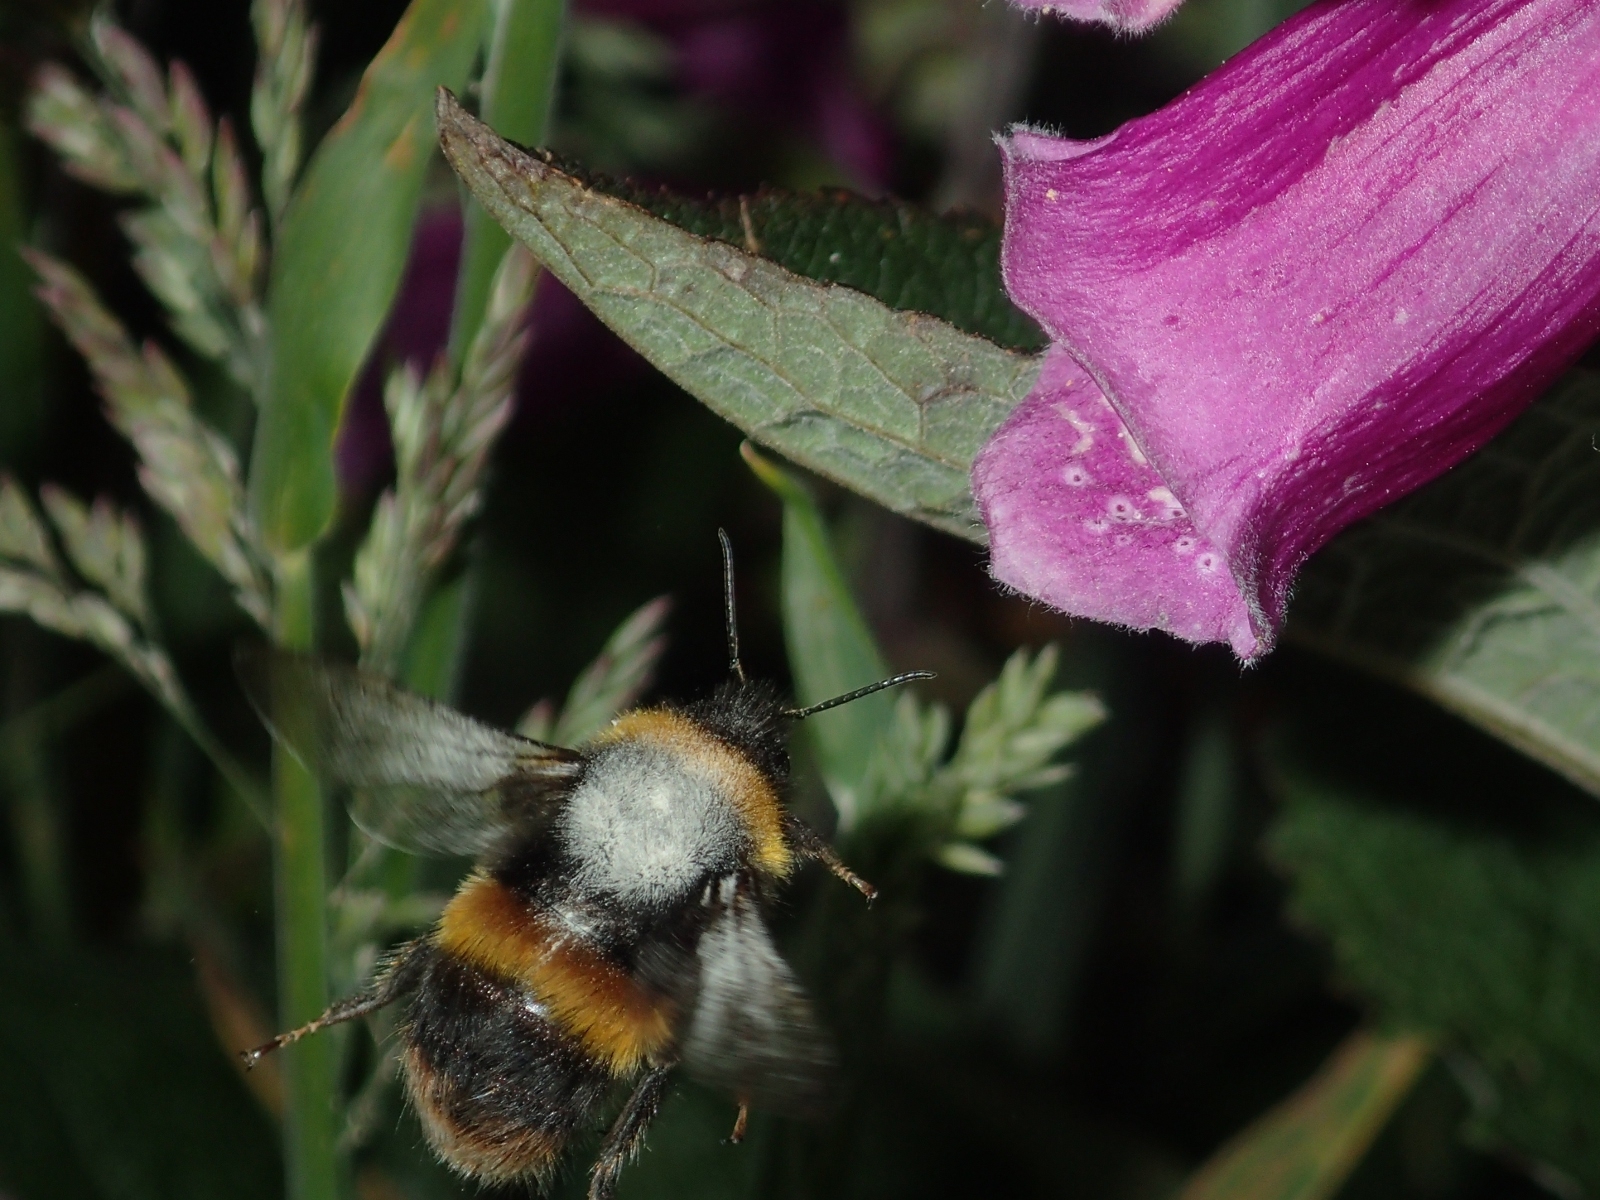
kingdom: Animalia
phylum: Arthropoda
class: Insecta
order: Hymenoptera
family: Apidae
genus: Bombus
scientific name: Bombus terrestris
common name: Buff-tailed bumblebee
